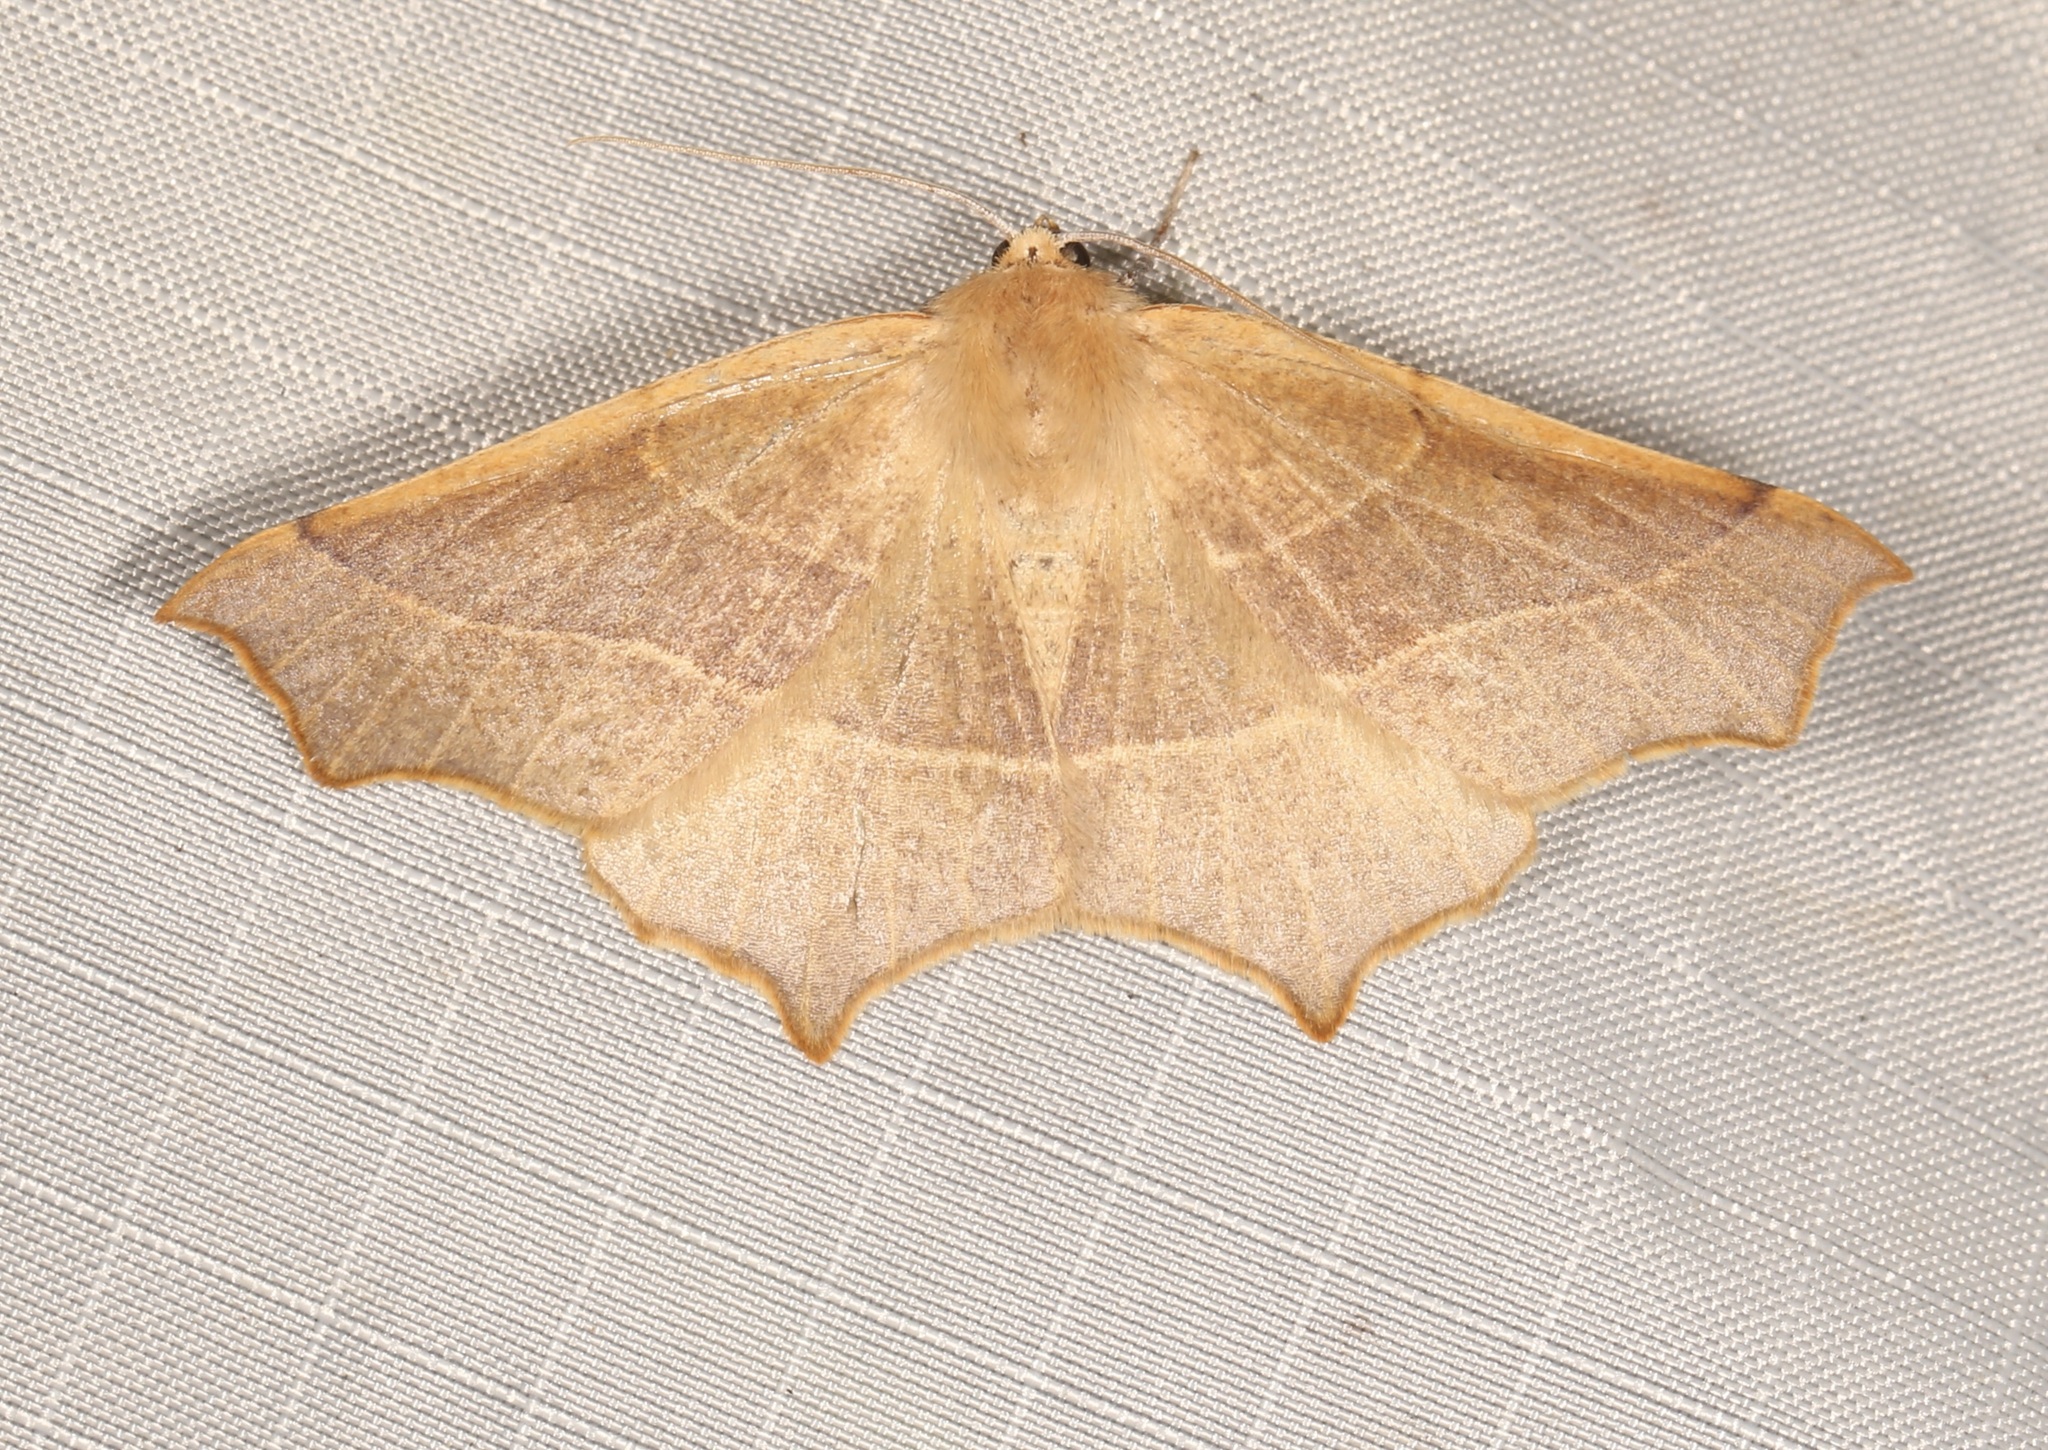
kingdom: Animalia
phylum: Arthropoda
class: Insecta
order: Lepidoptera
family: Geometridae
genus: Tetracis
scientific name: Tetracis cervinaria
